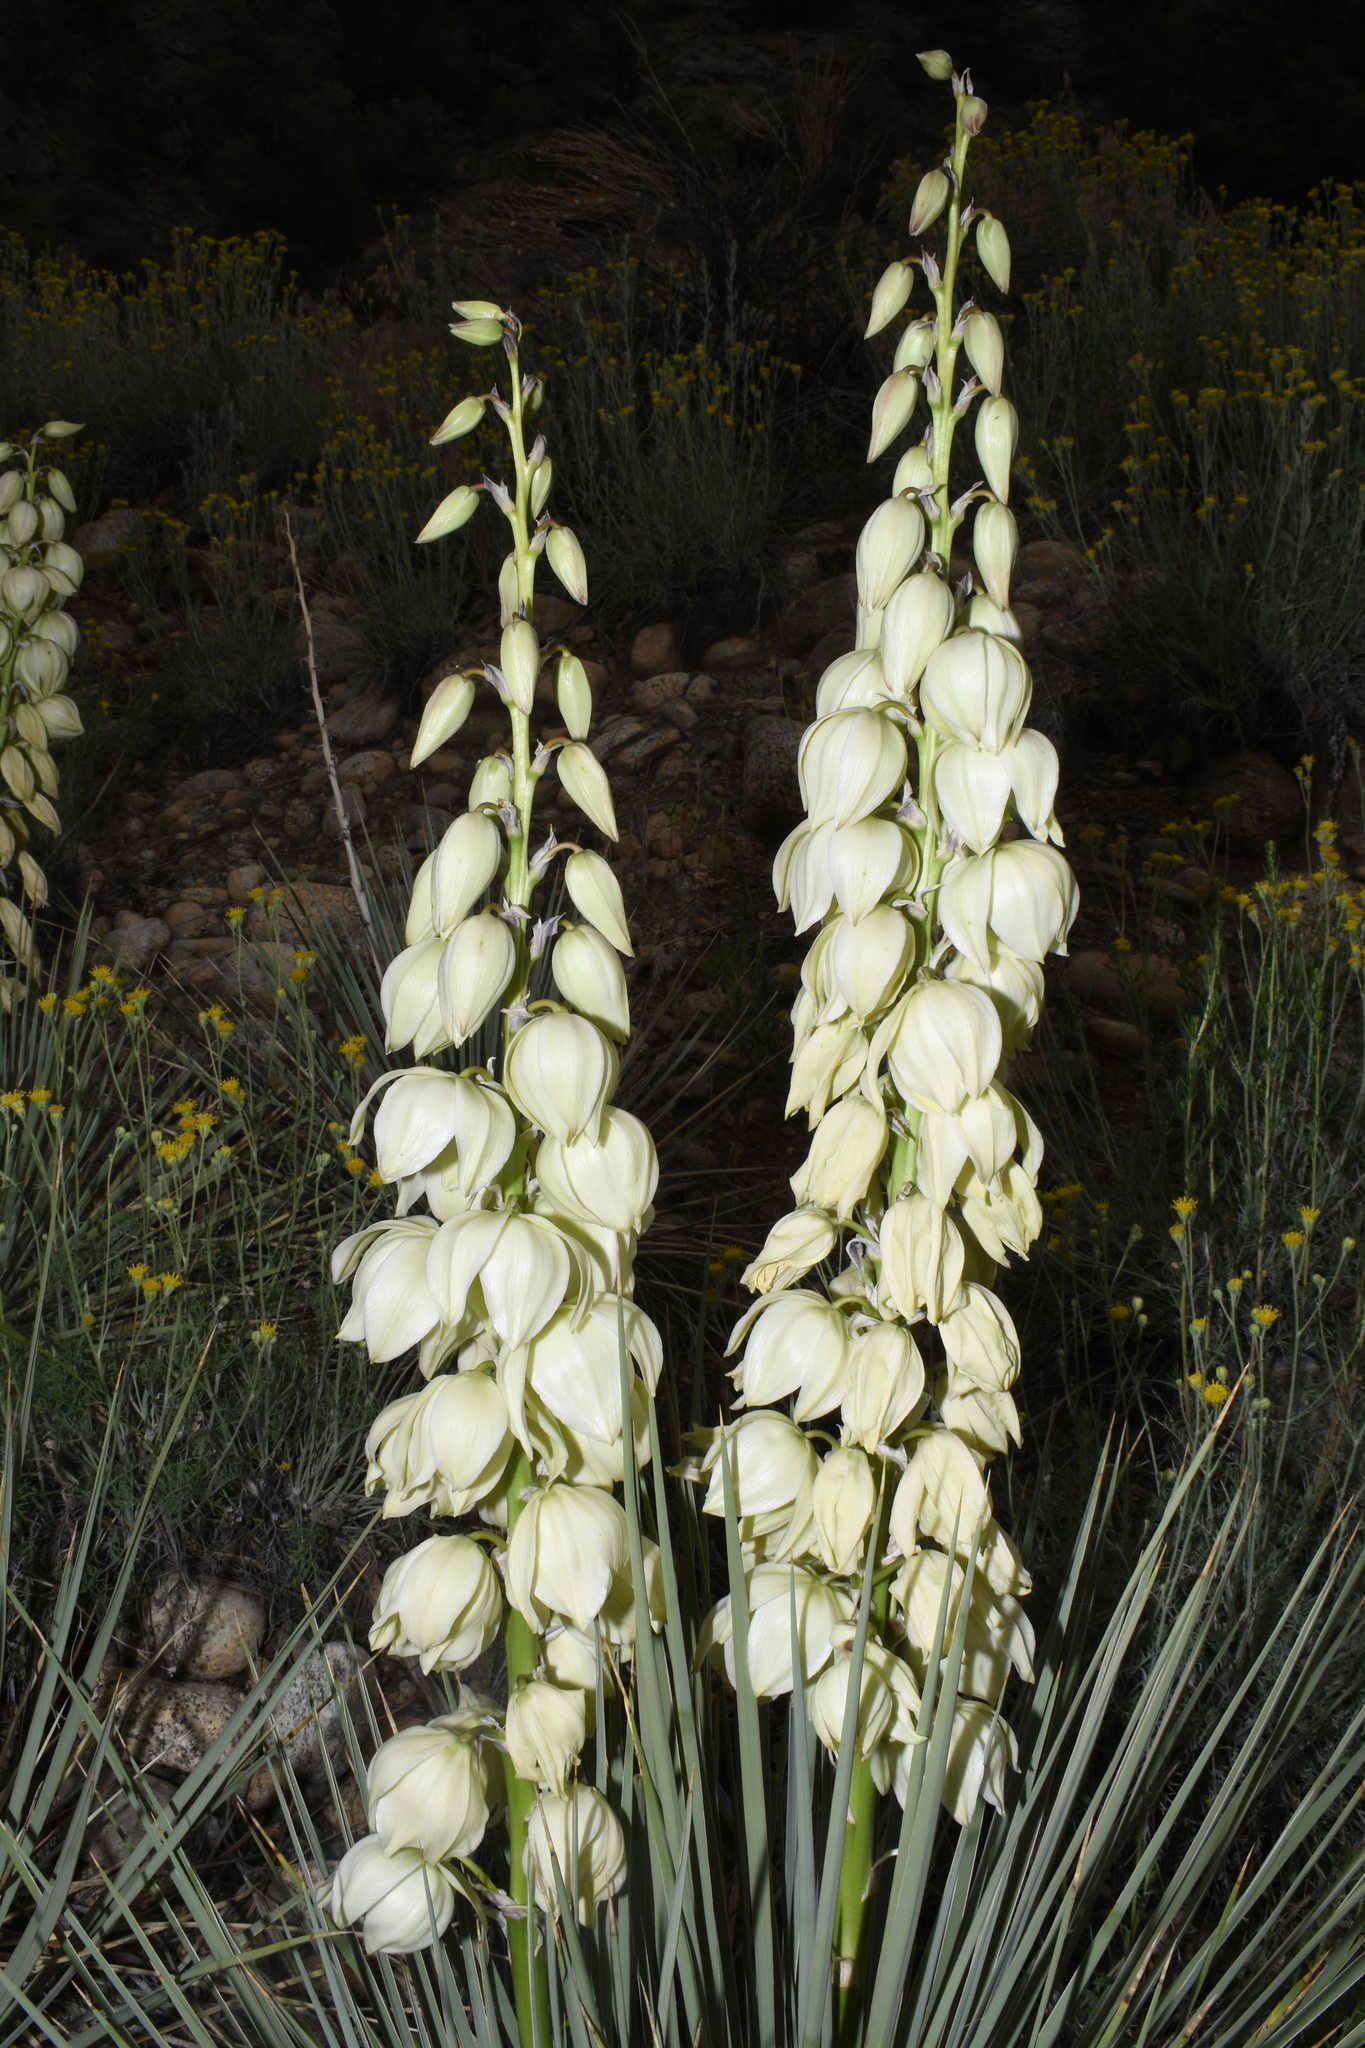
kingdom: Plantae
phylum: Tracheophyta
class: Liliopsida
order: Asparagales
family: Asparagaceae
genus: Yucca
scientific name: Yucca glauca
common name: Great plains yucca
